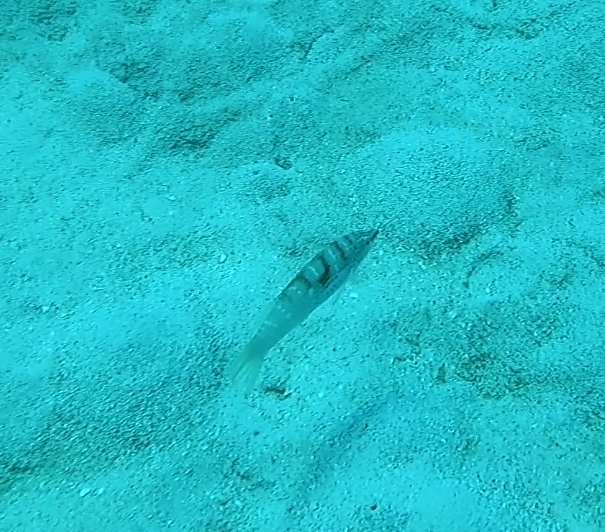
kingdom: Animalia
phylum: Chordata
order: Perciformes
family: Labridae
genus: Coris
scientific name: Coris batuensis
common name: Batu coris
